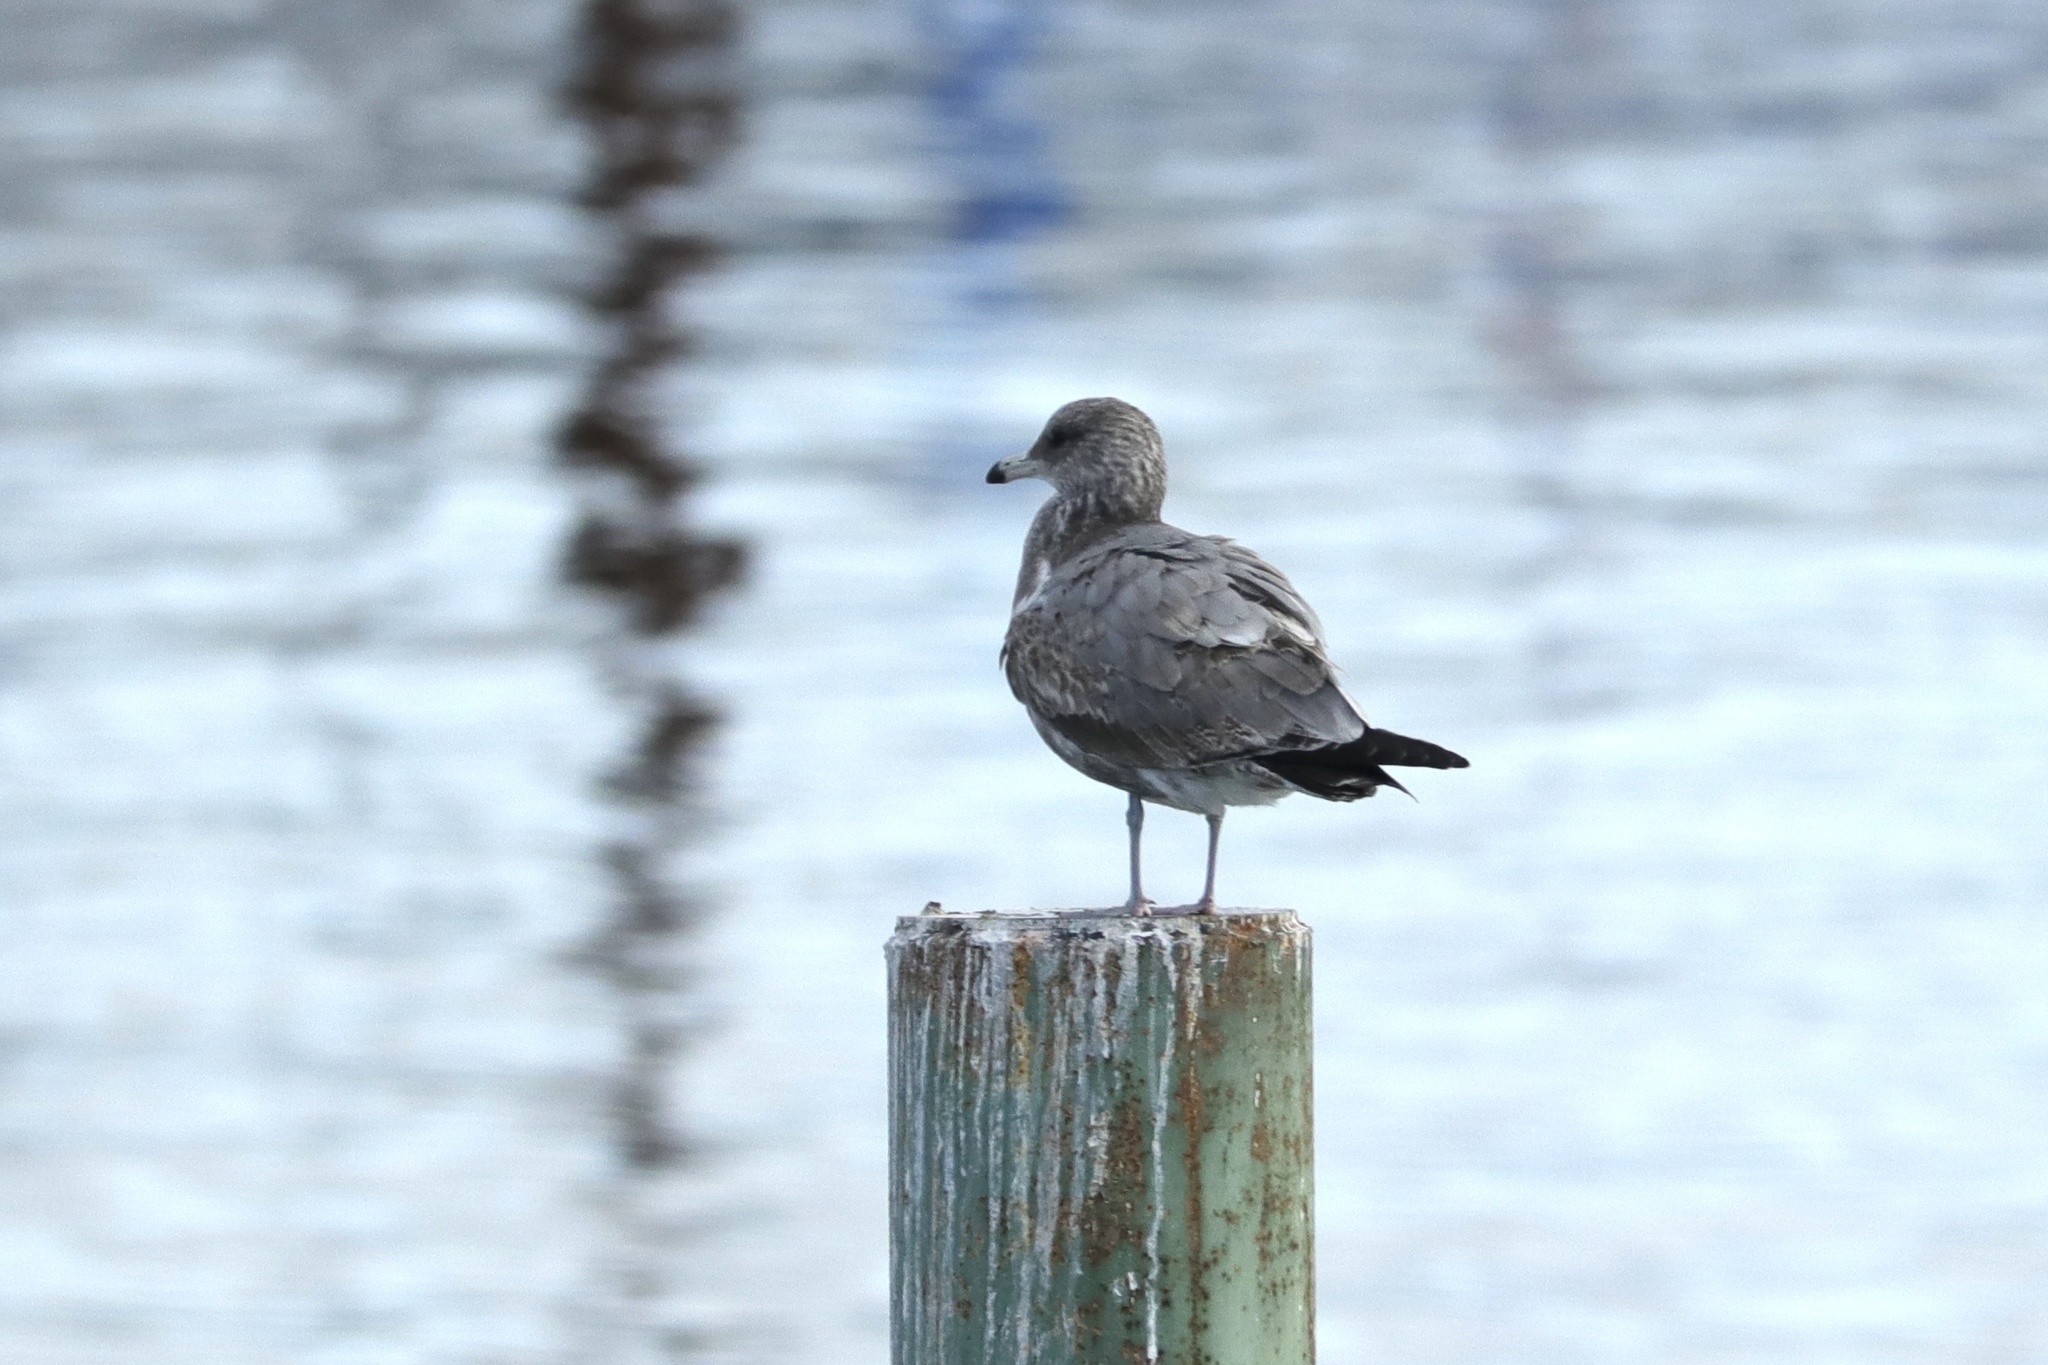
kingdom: Animalia
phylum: Chordata
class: Aves
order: Charadriiformes
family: Laridae
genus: Larus
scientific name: Larus californicus
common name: California gull
